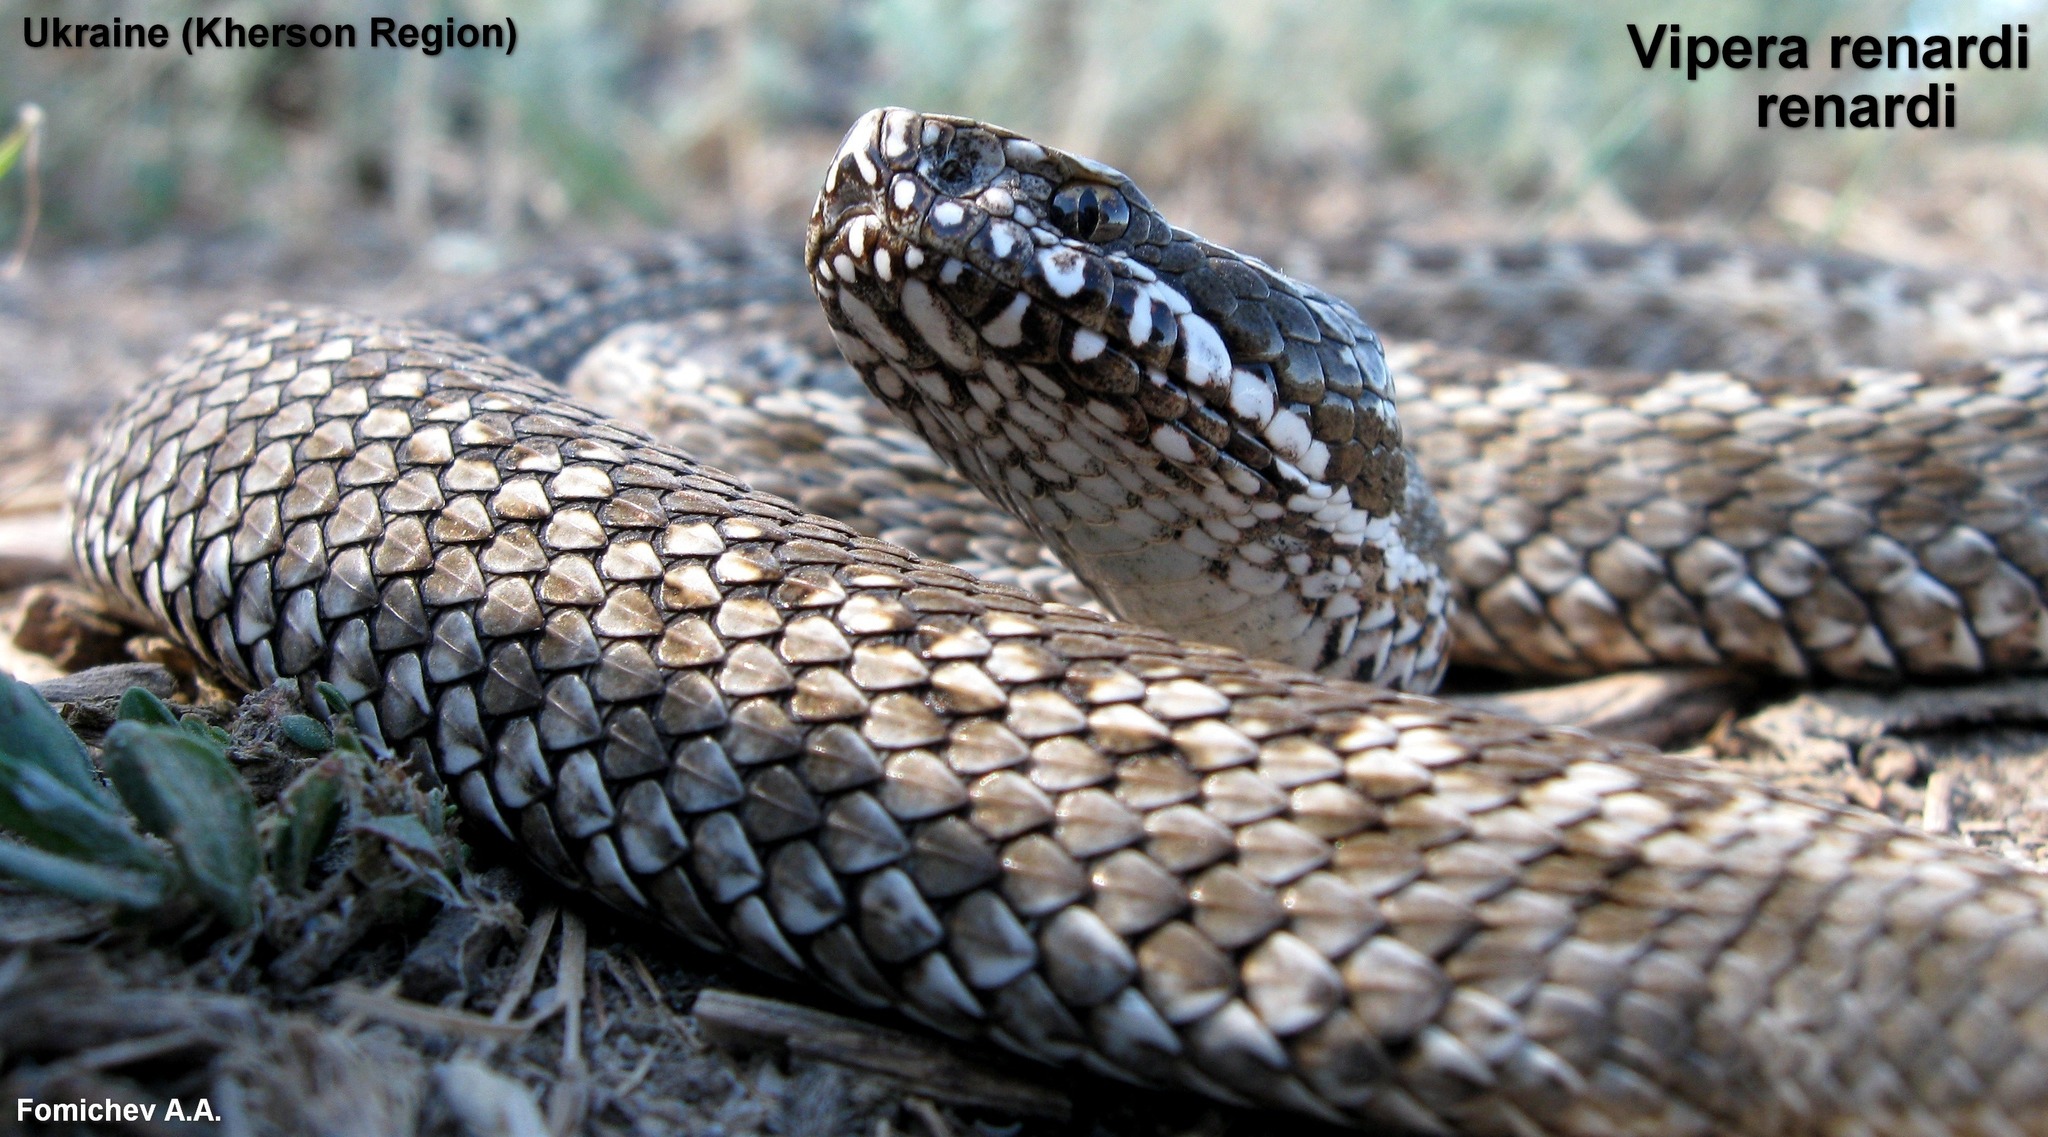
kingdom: Animalia
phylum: Chordata
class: Squamata
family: Viperidae
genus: Vipera
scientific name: Vipera renardi
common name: Eastern steppe viper
